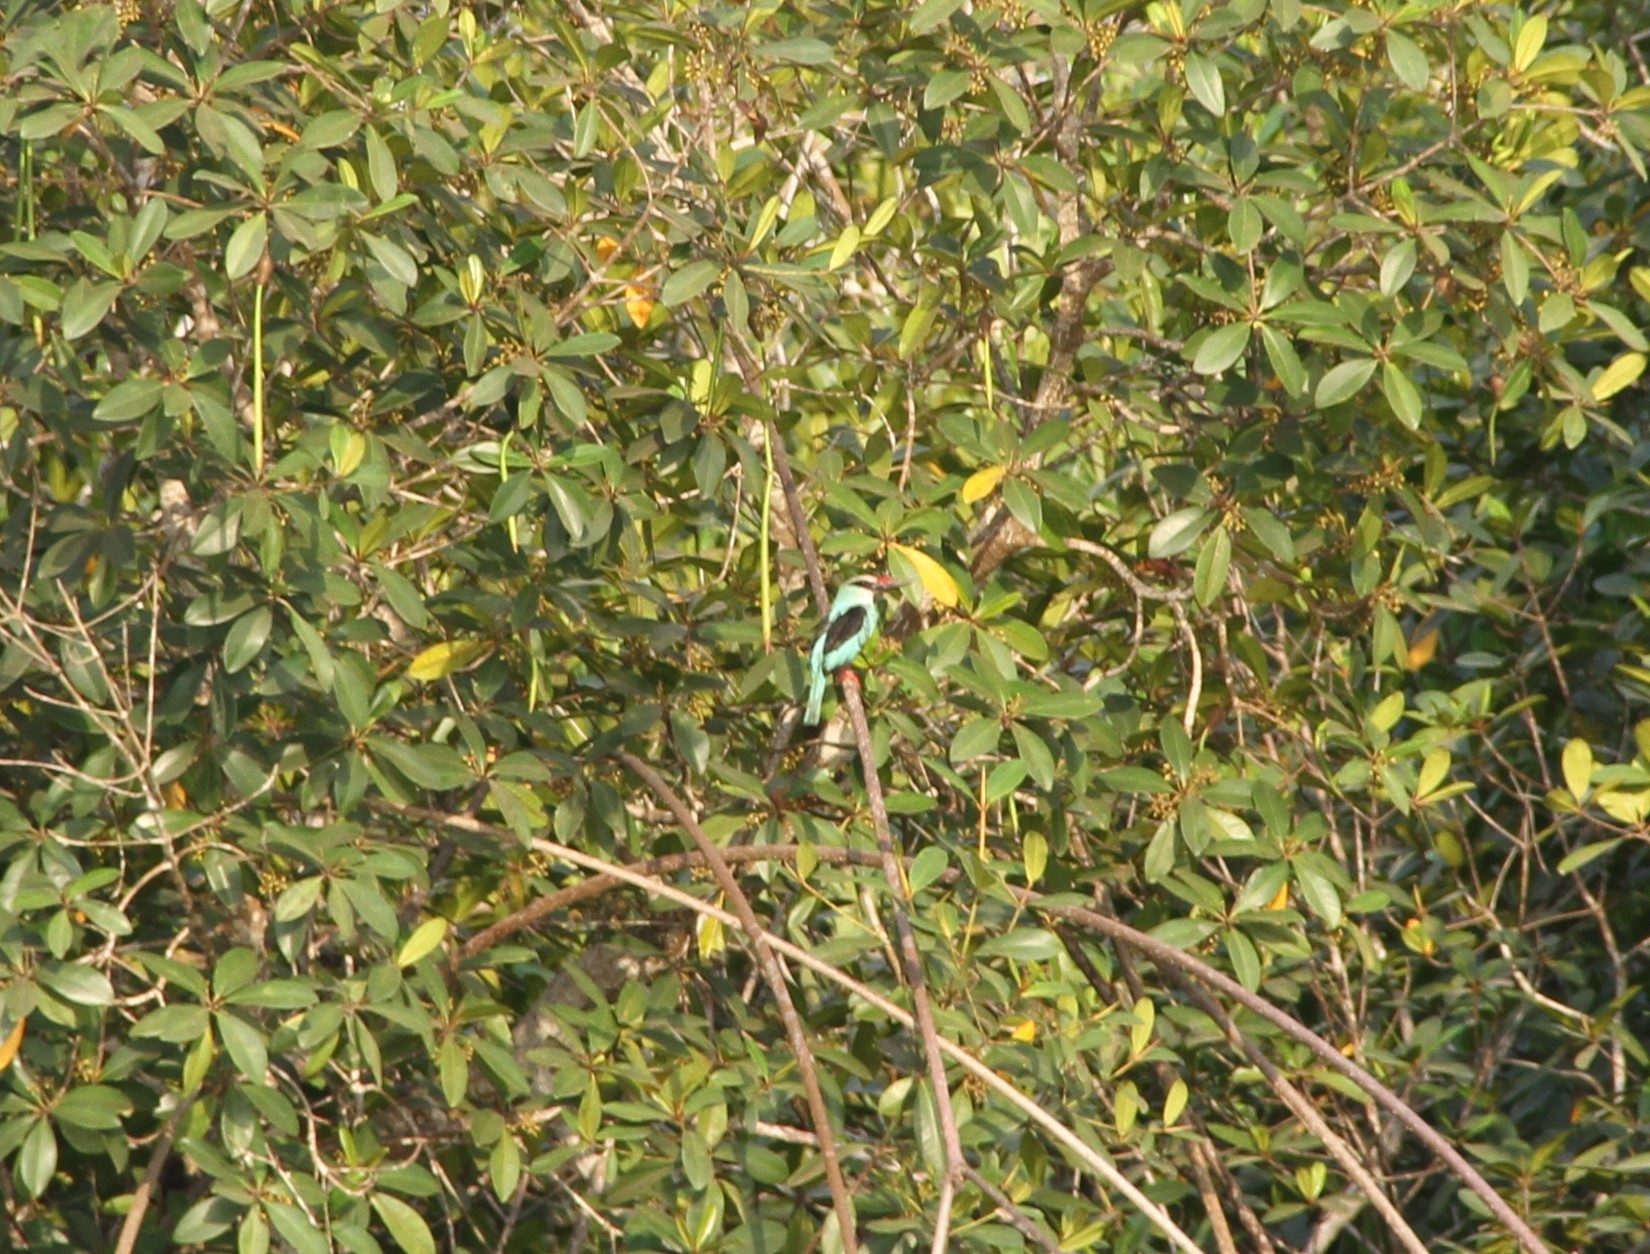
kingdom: Animalia
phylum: Chordata
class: Aves
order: Coraciiformes
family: Alcedinidae
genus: Halcyon
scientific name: Halcyon senegalensis
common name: Woodland kingfisher
